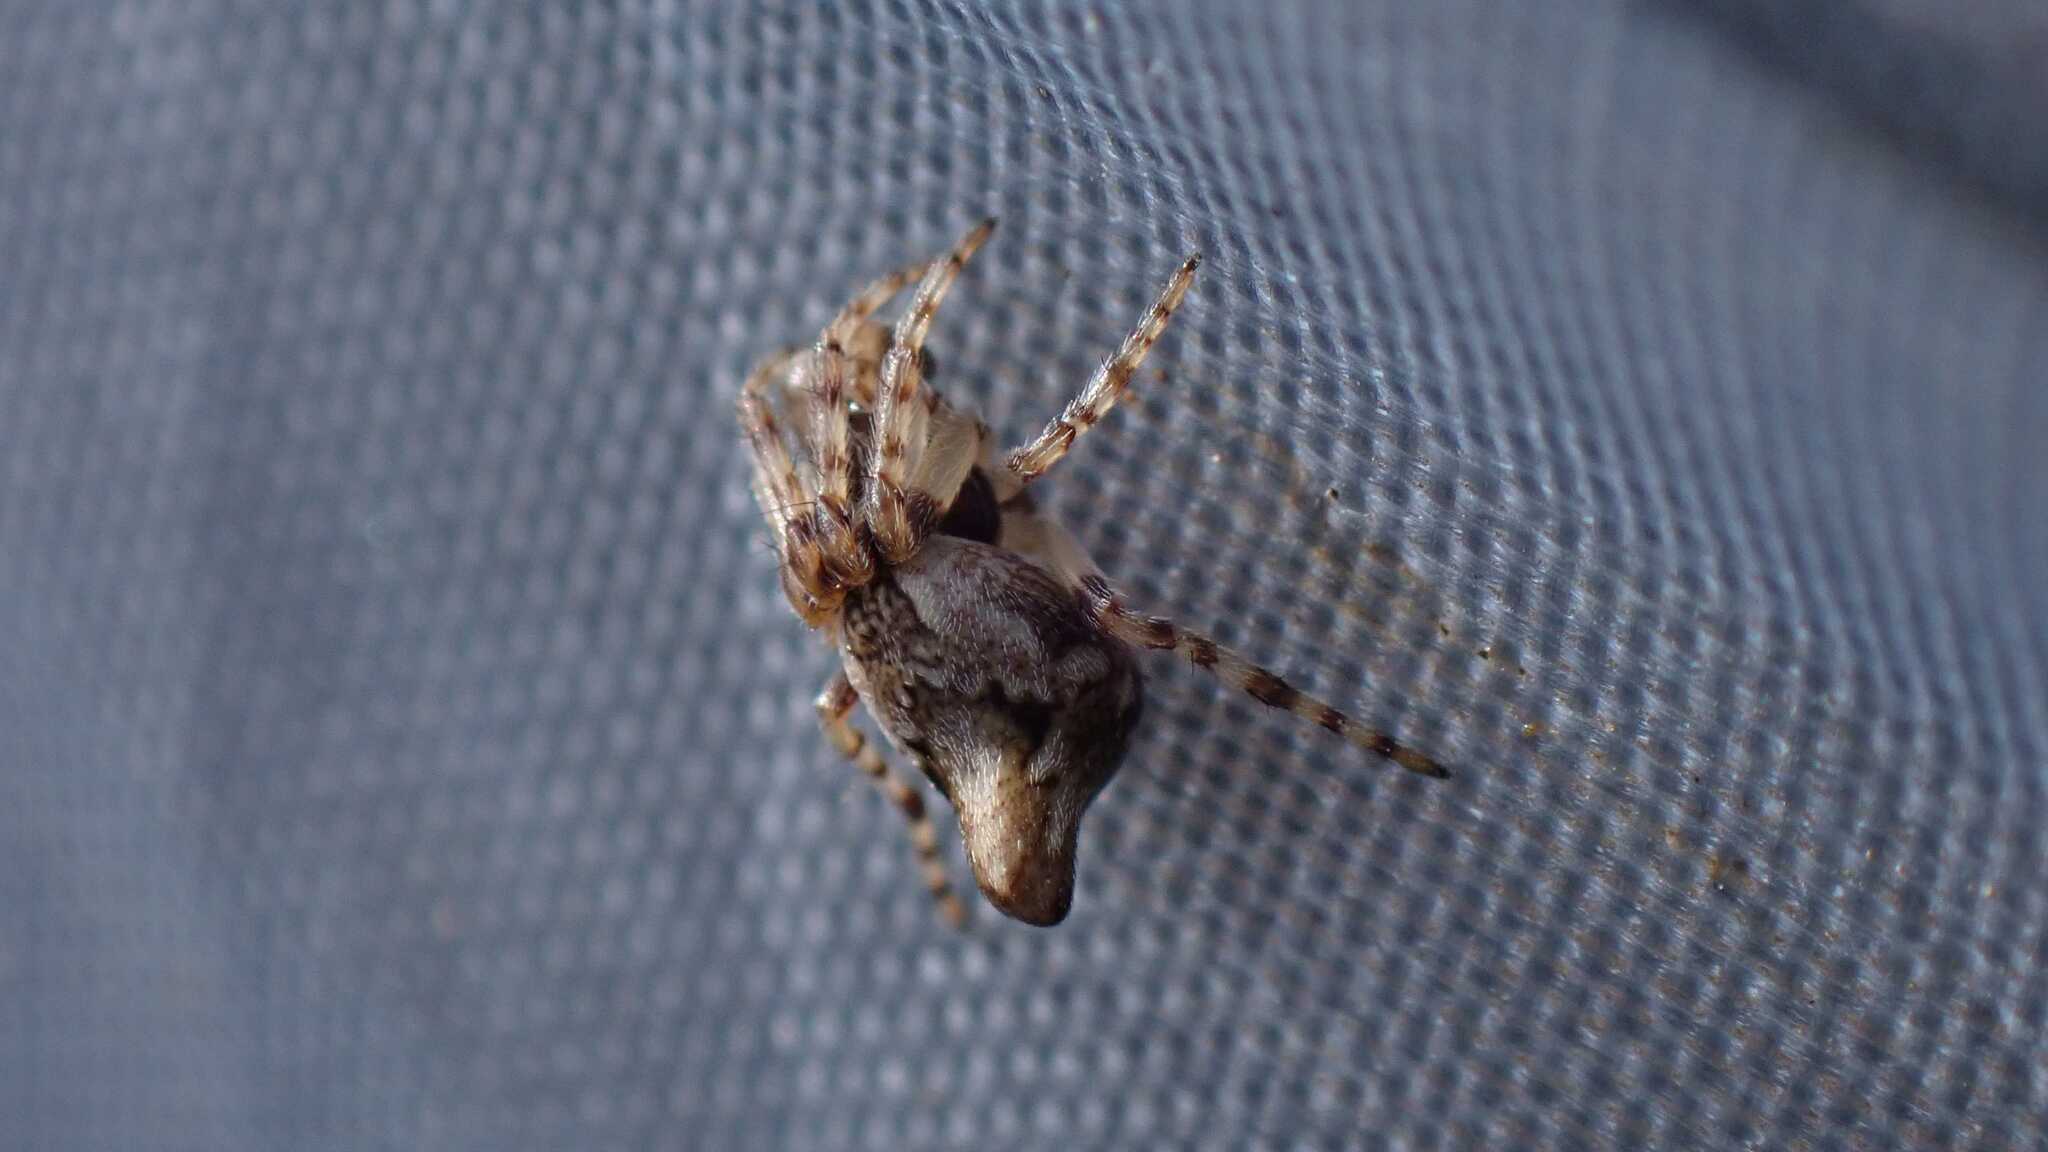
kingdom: Animalia
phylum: Arthropoda
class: Arachnida
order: Araneae
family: Araneidae
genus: Cyclosa
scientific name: Cyclosa conica
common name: Conical trashline orbweaver
